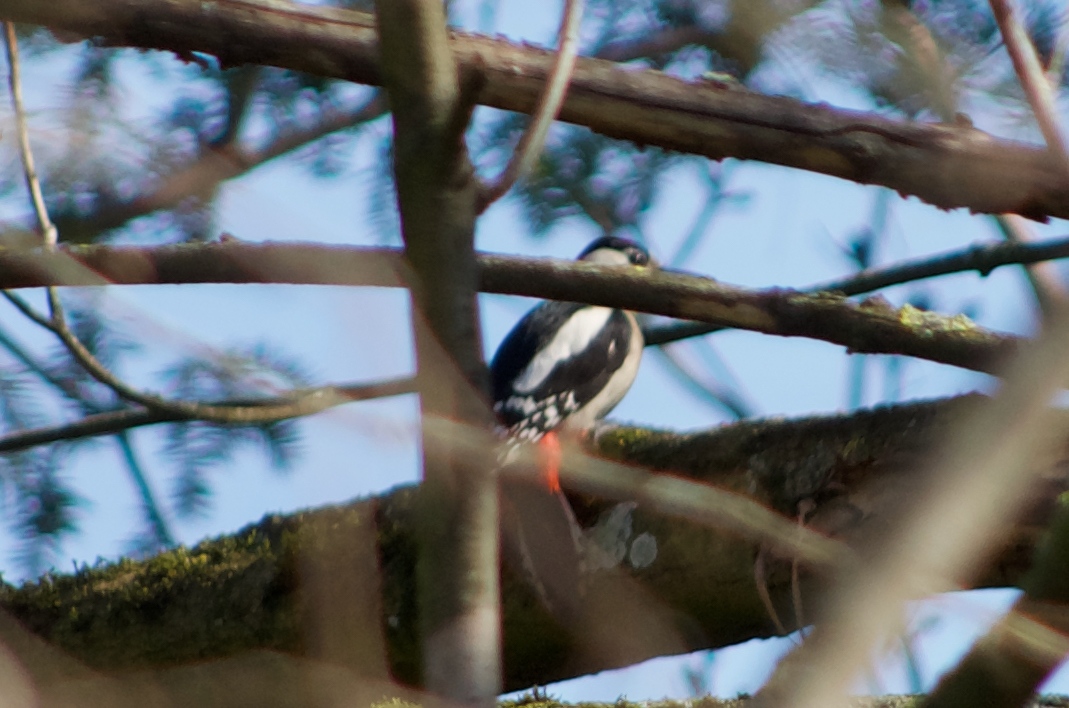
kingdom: Animalia
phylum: Chordata
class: Aves
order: Piciformes
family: Picidae
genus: Dendrocopos
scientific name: Dendrocopos major
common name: Great spotted woodpecker
